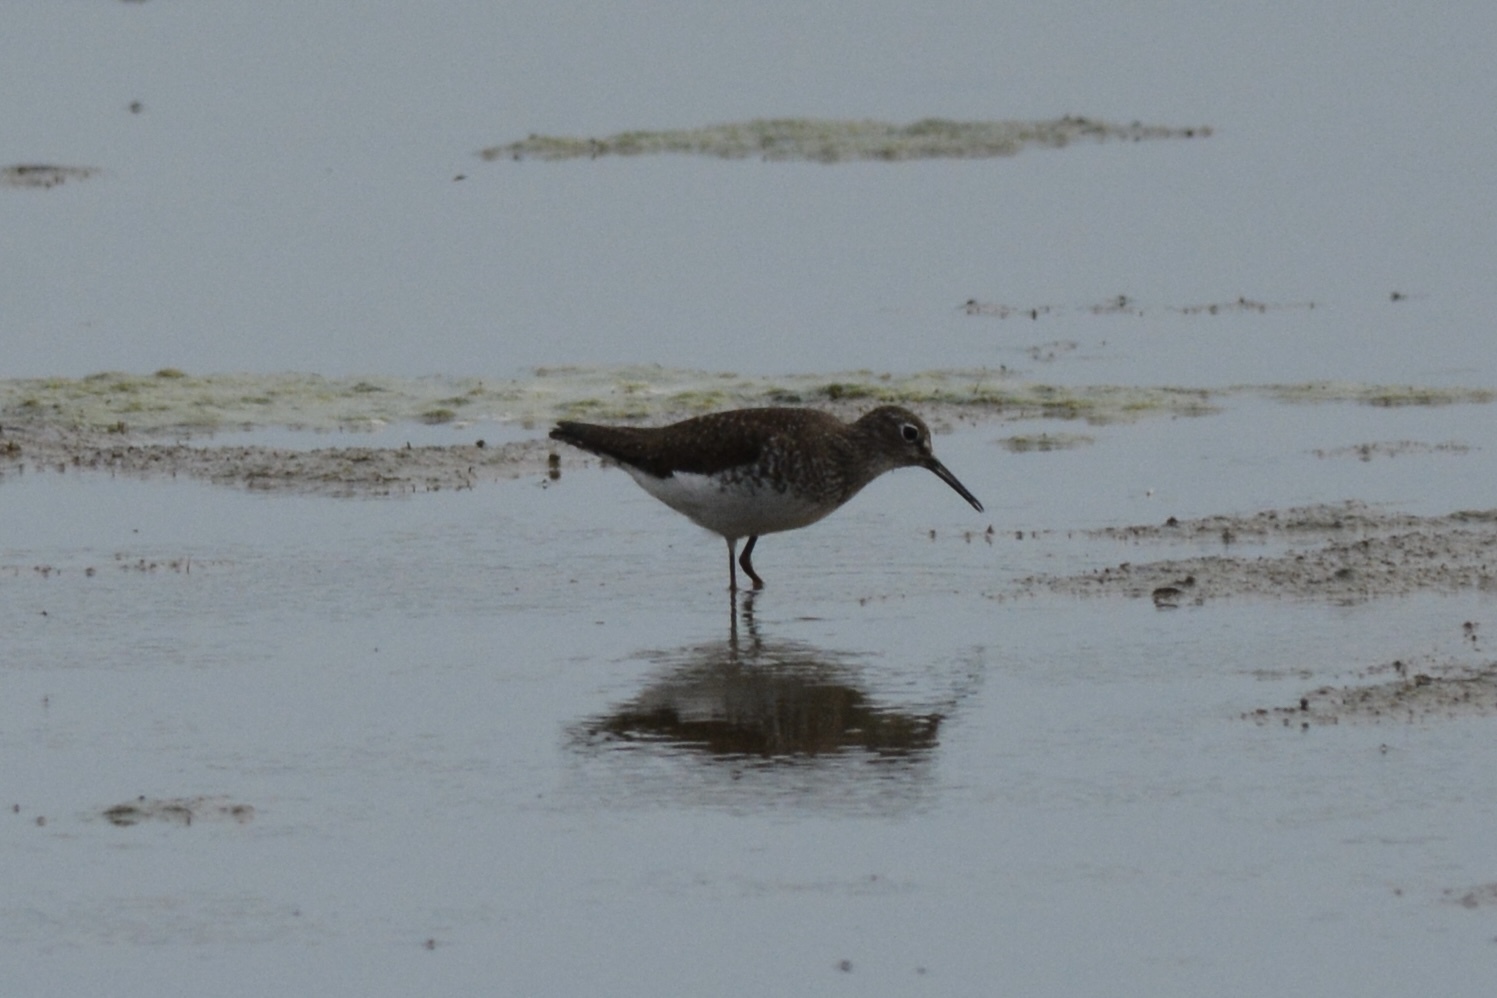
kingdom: Animalia
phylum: Chordata
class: Aves
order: Charadriiformes
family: Scolopacidae
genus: Tringa
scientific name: Tringa solitaria
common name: Solitary sandpiper
